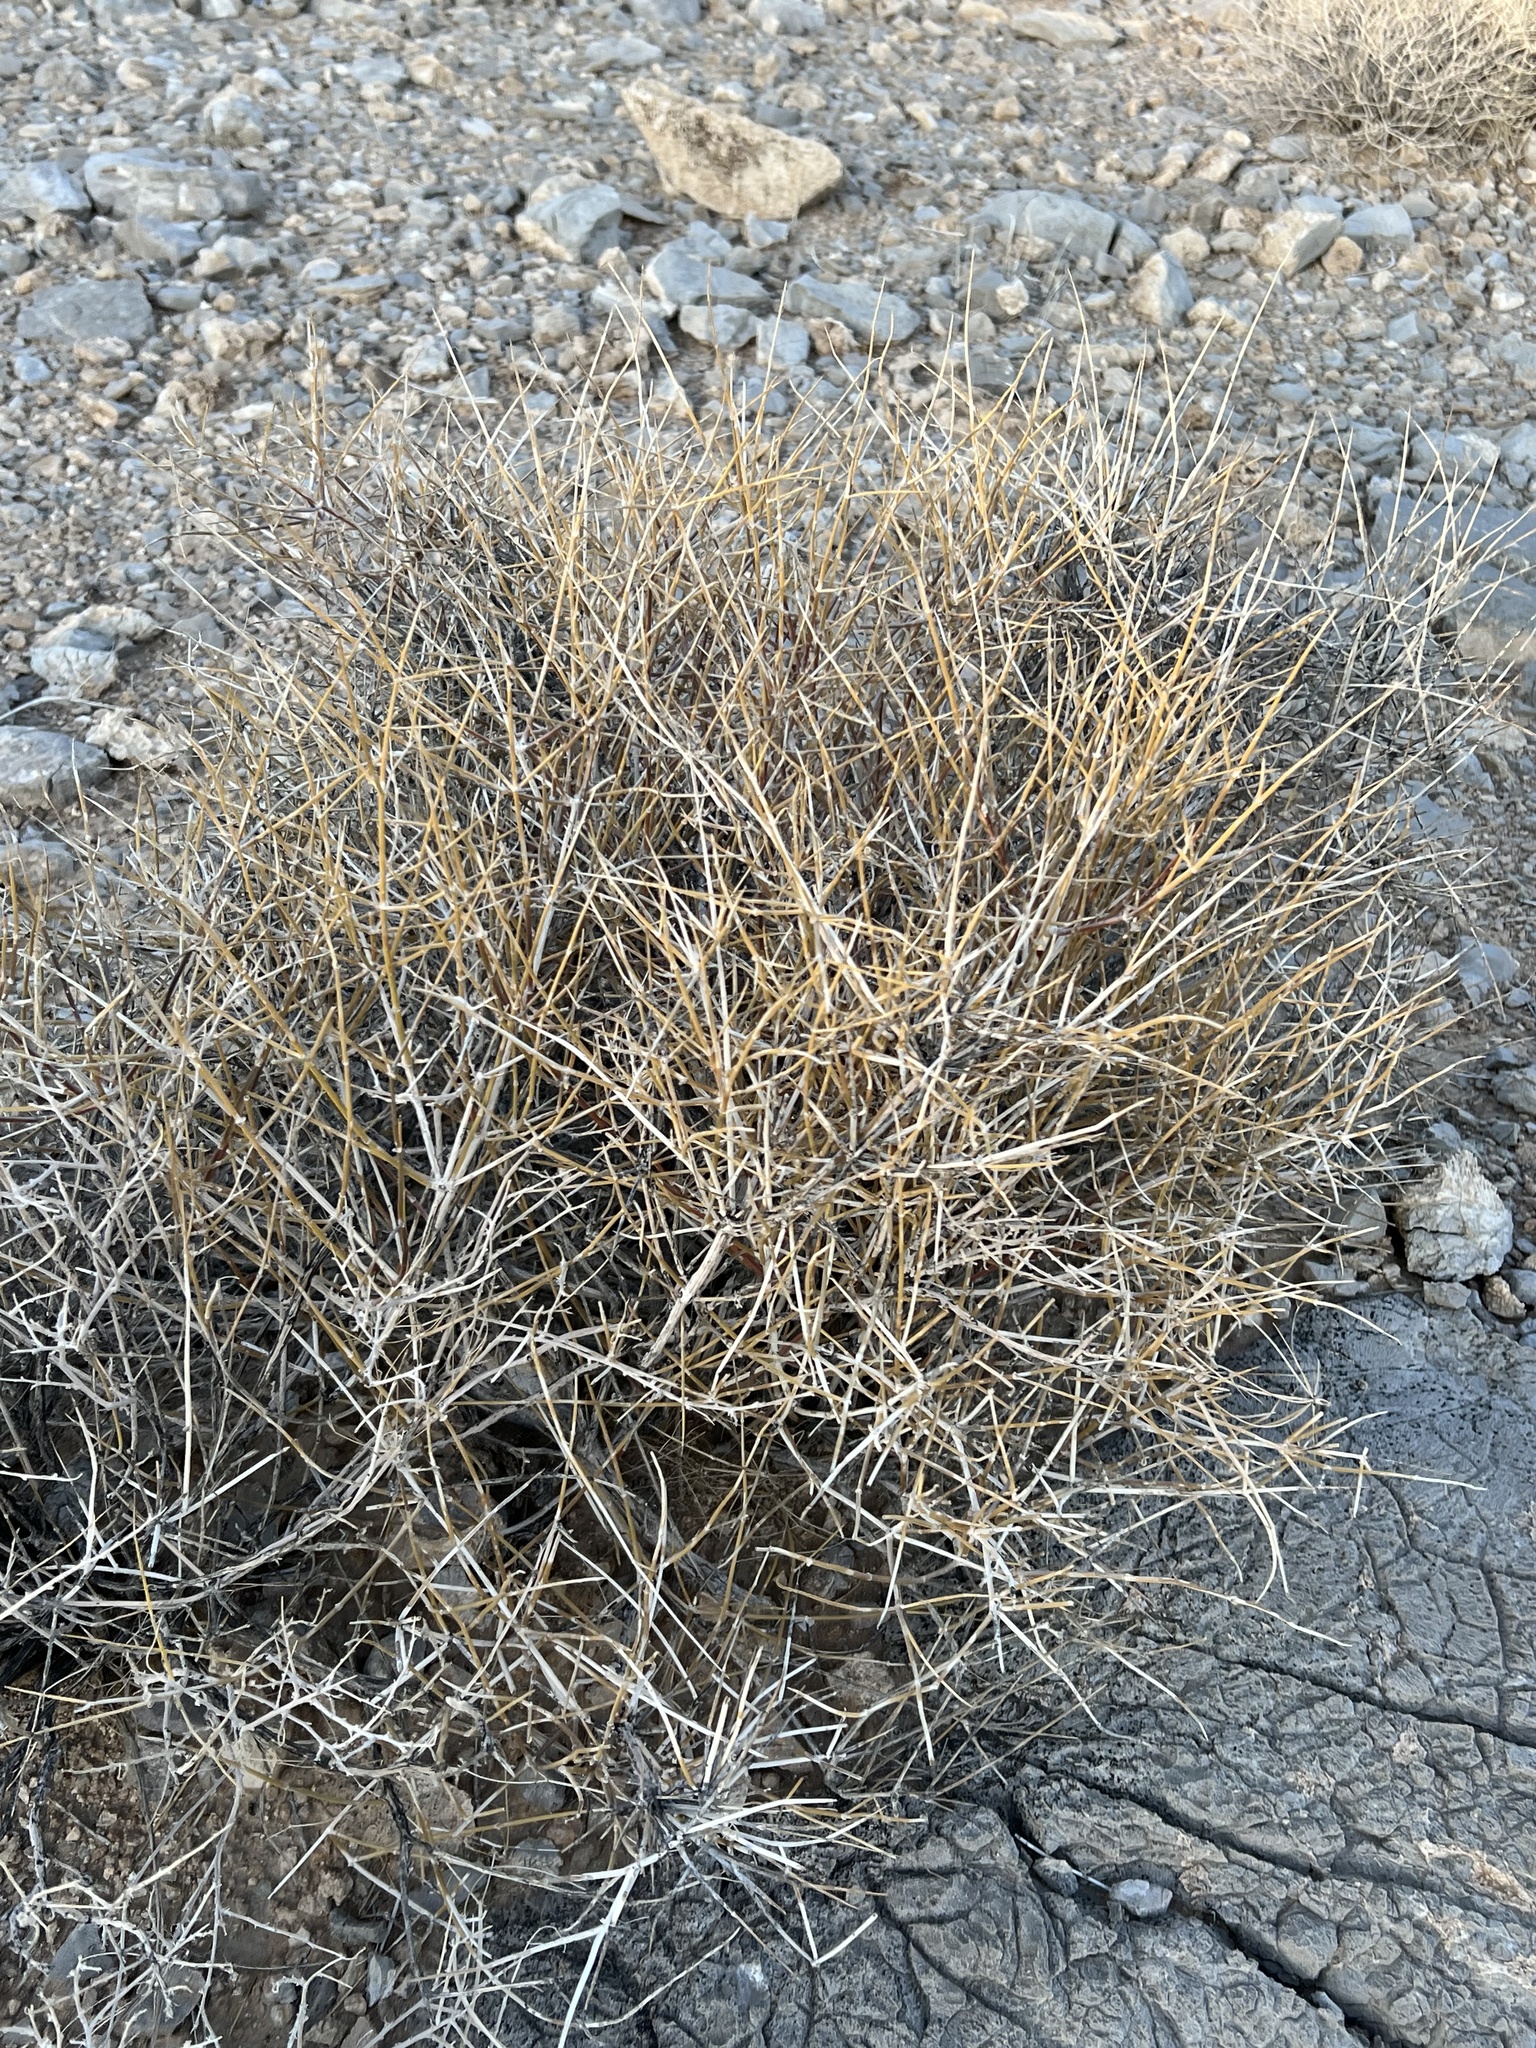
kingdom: Plantae
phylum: Tracheophyta
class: Gnetopsida
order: Ephedrales
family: Ephedraceae
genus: Ephedra
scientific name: Ephedra nevadensis
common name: Gray ephedra
